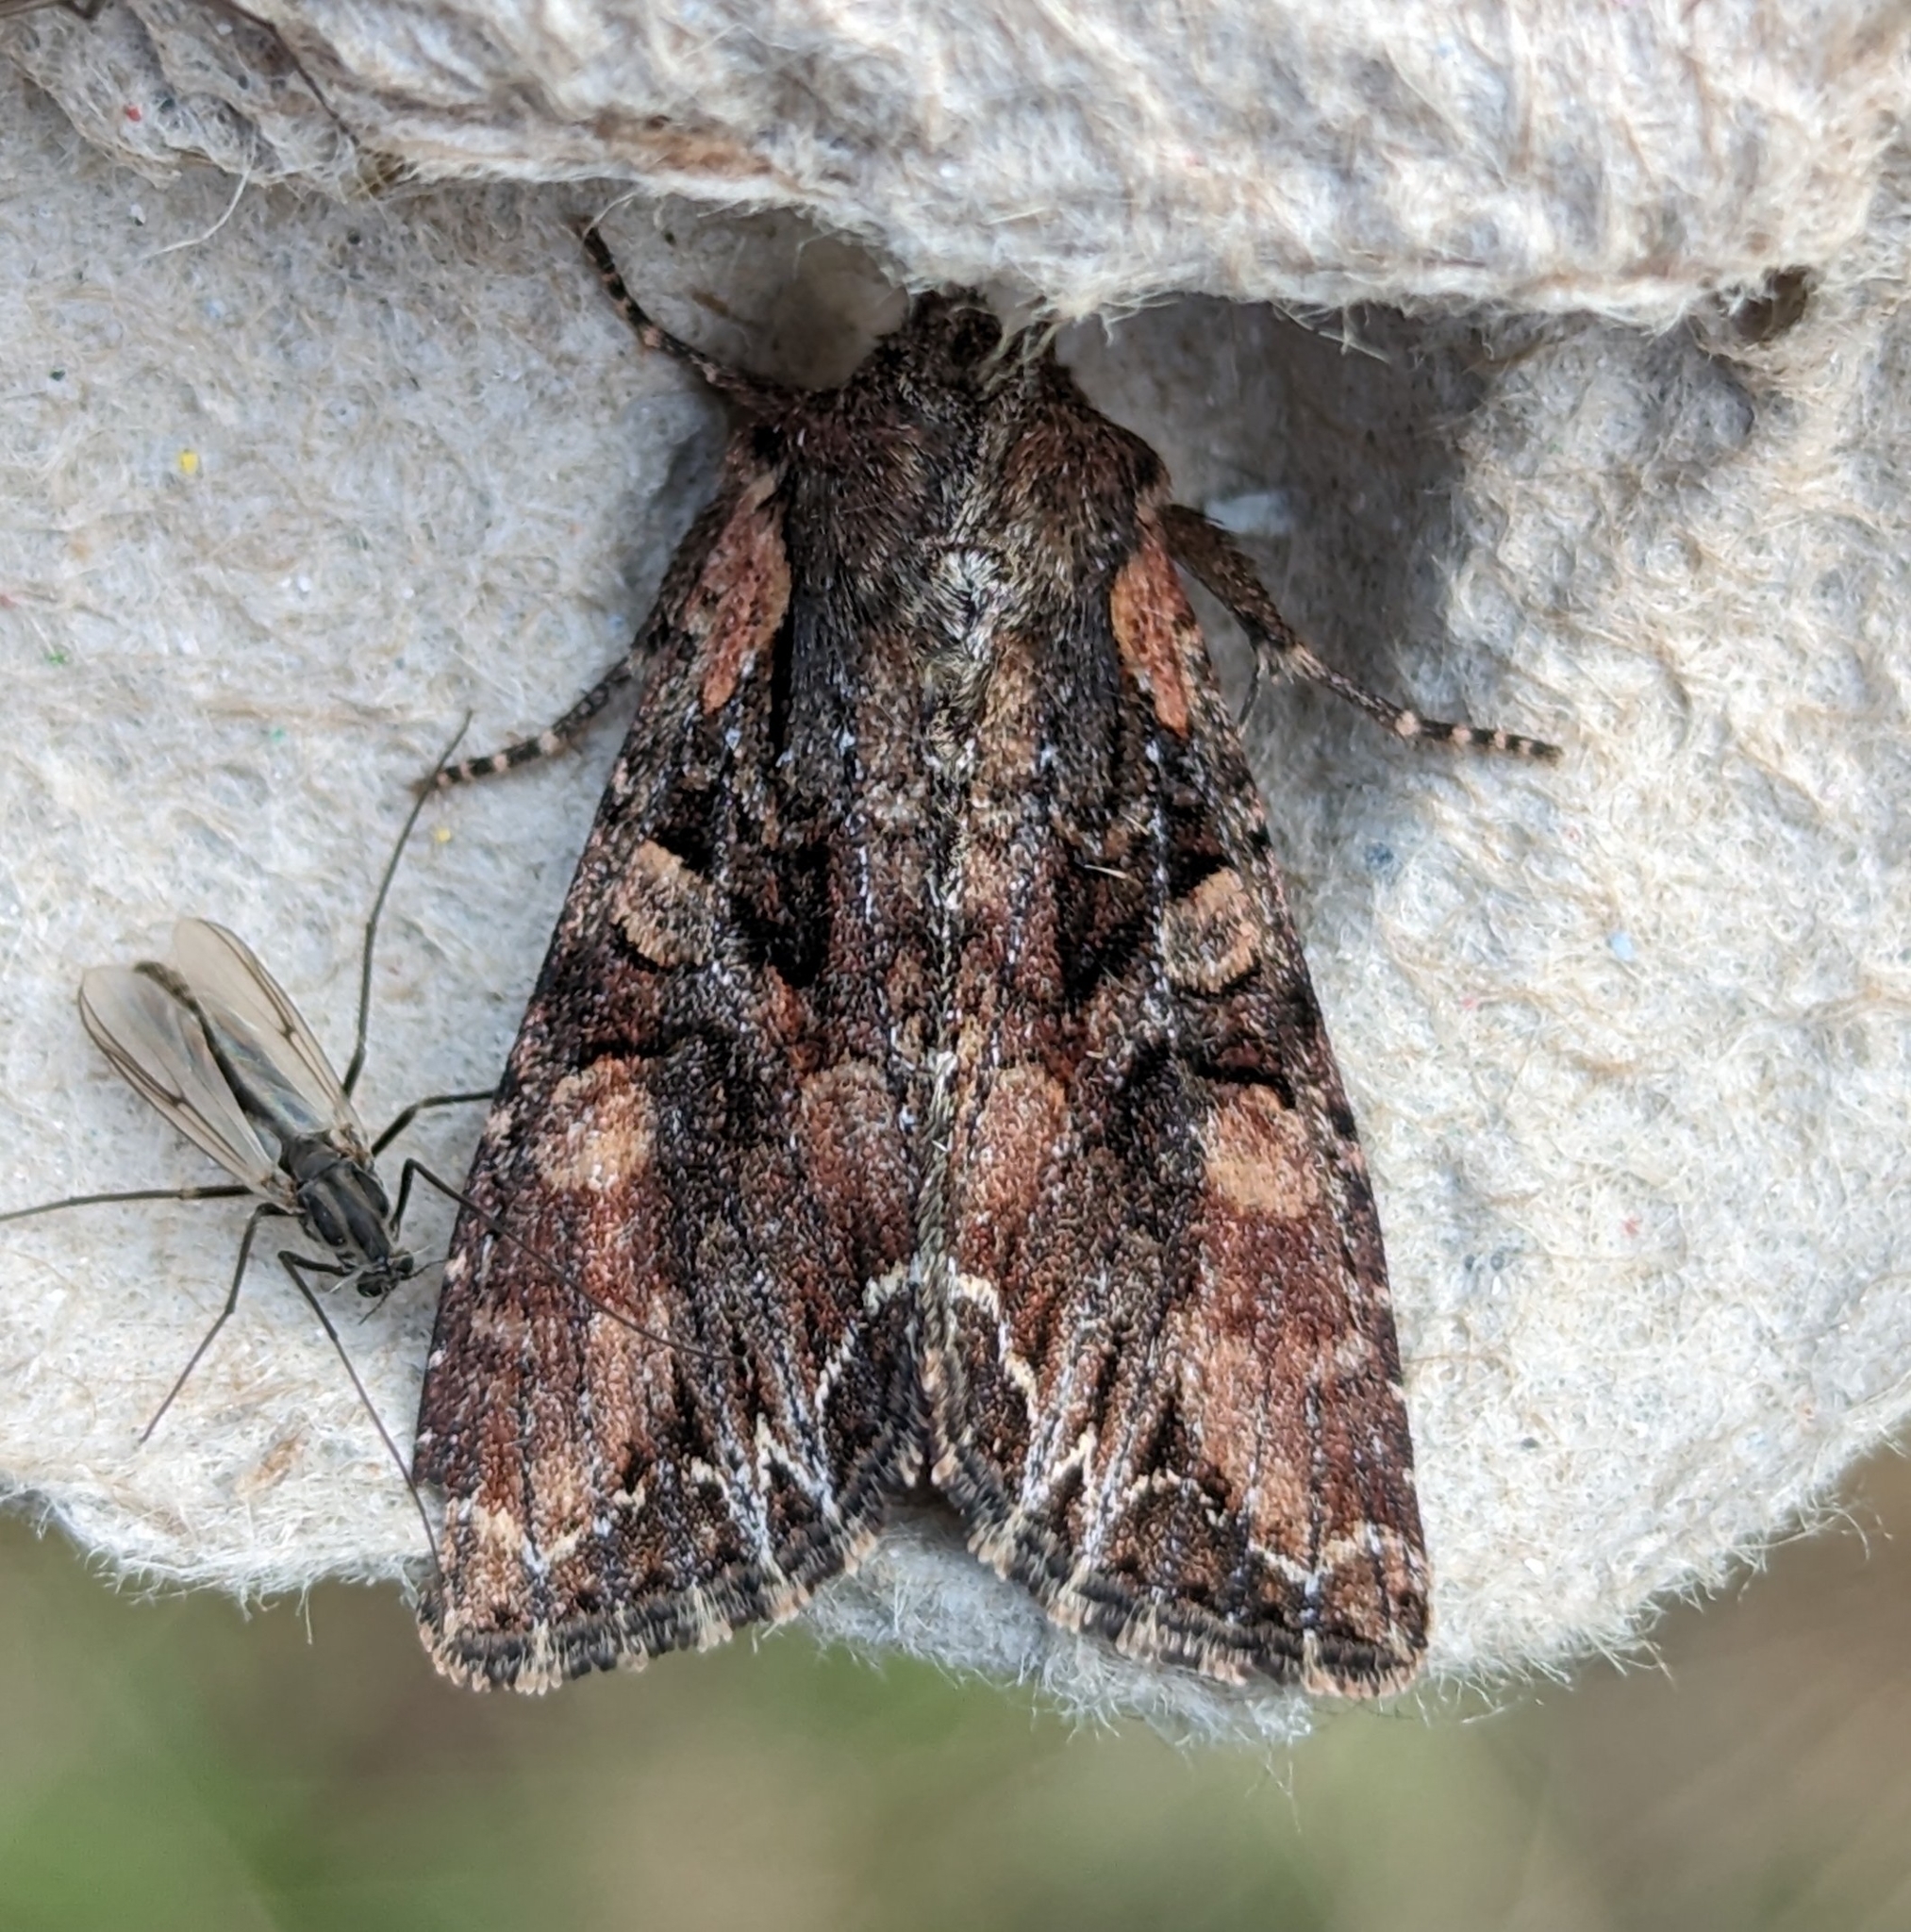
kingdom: Animalia
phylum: Arthropoda
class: Insecta
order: Lepidoptera
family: Noctuidae
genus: Lacanobia
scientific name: Lacanobia nevadae
